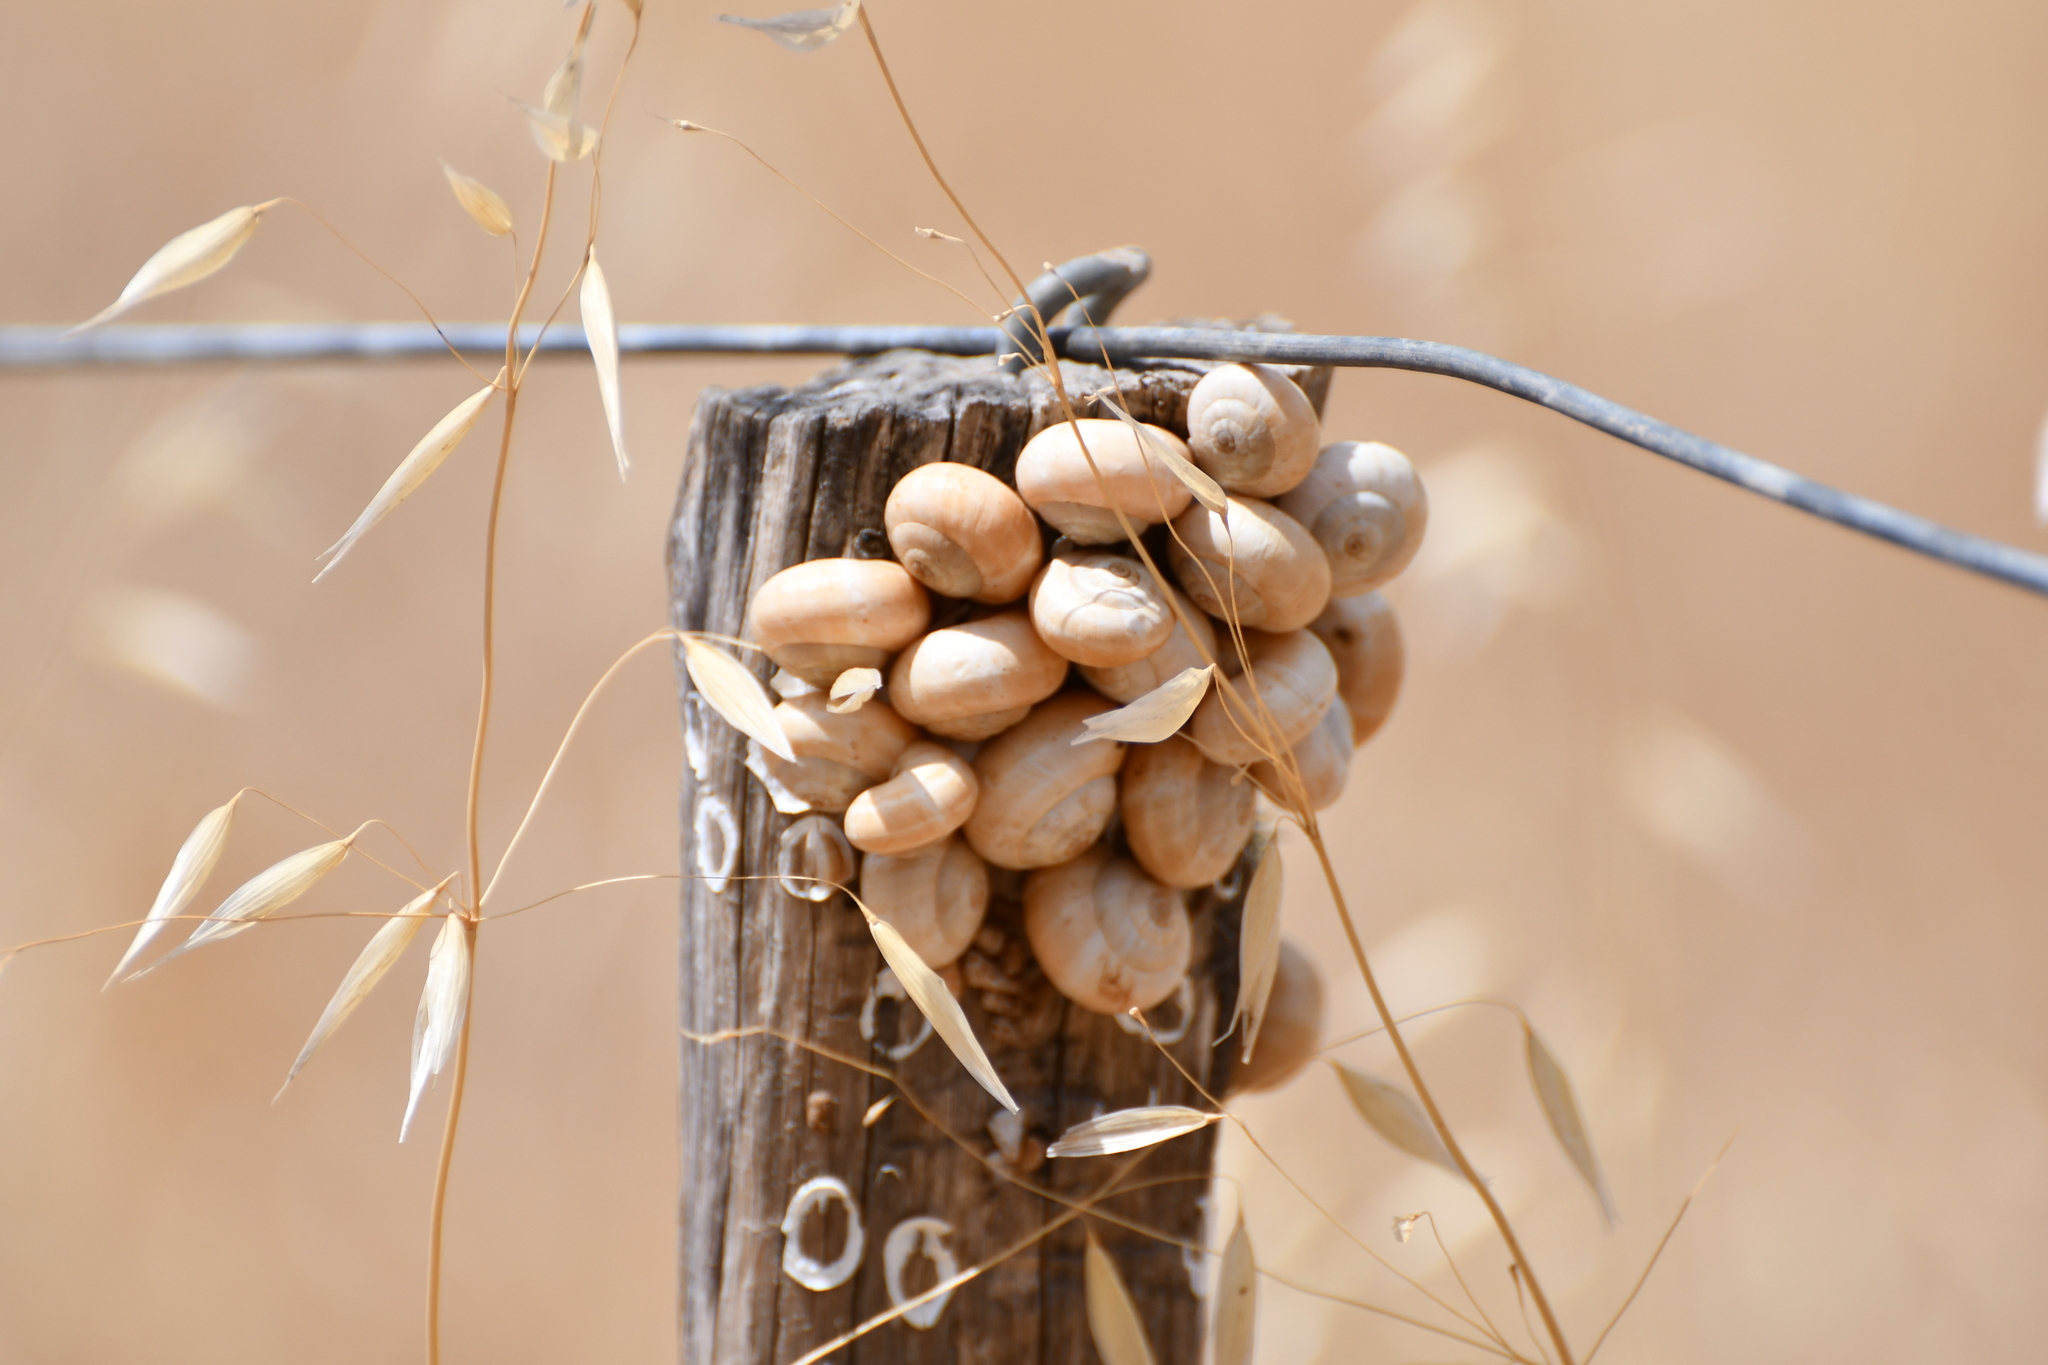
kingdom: Animalia
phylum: Mollusca
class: Gastropoda
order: Stylommatophora
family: Helicidae
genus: Theba
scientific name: Theba pisana
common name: White snail
